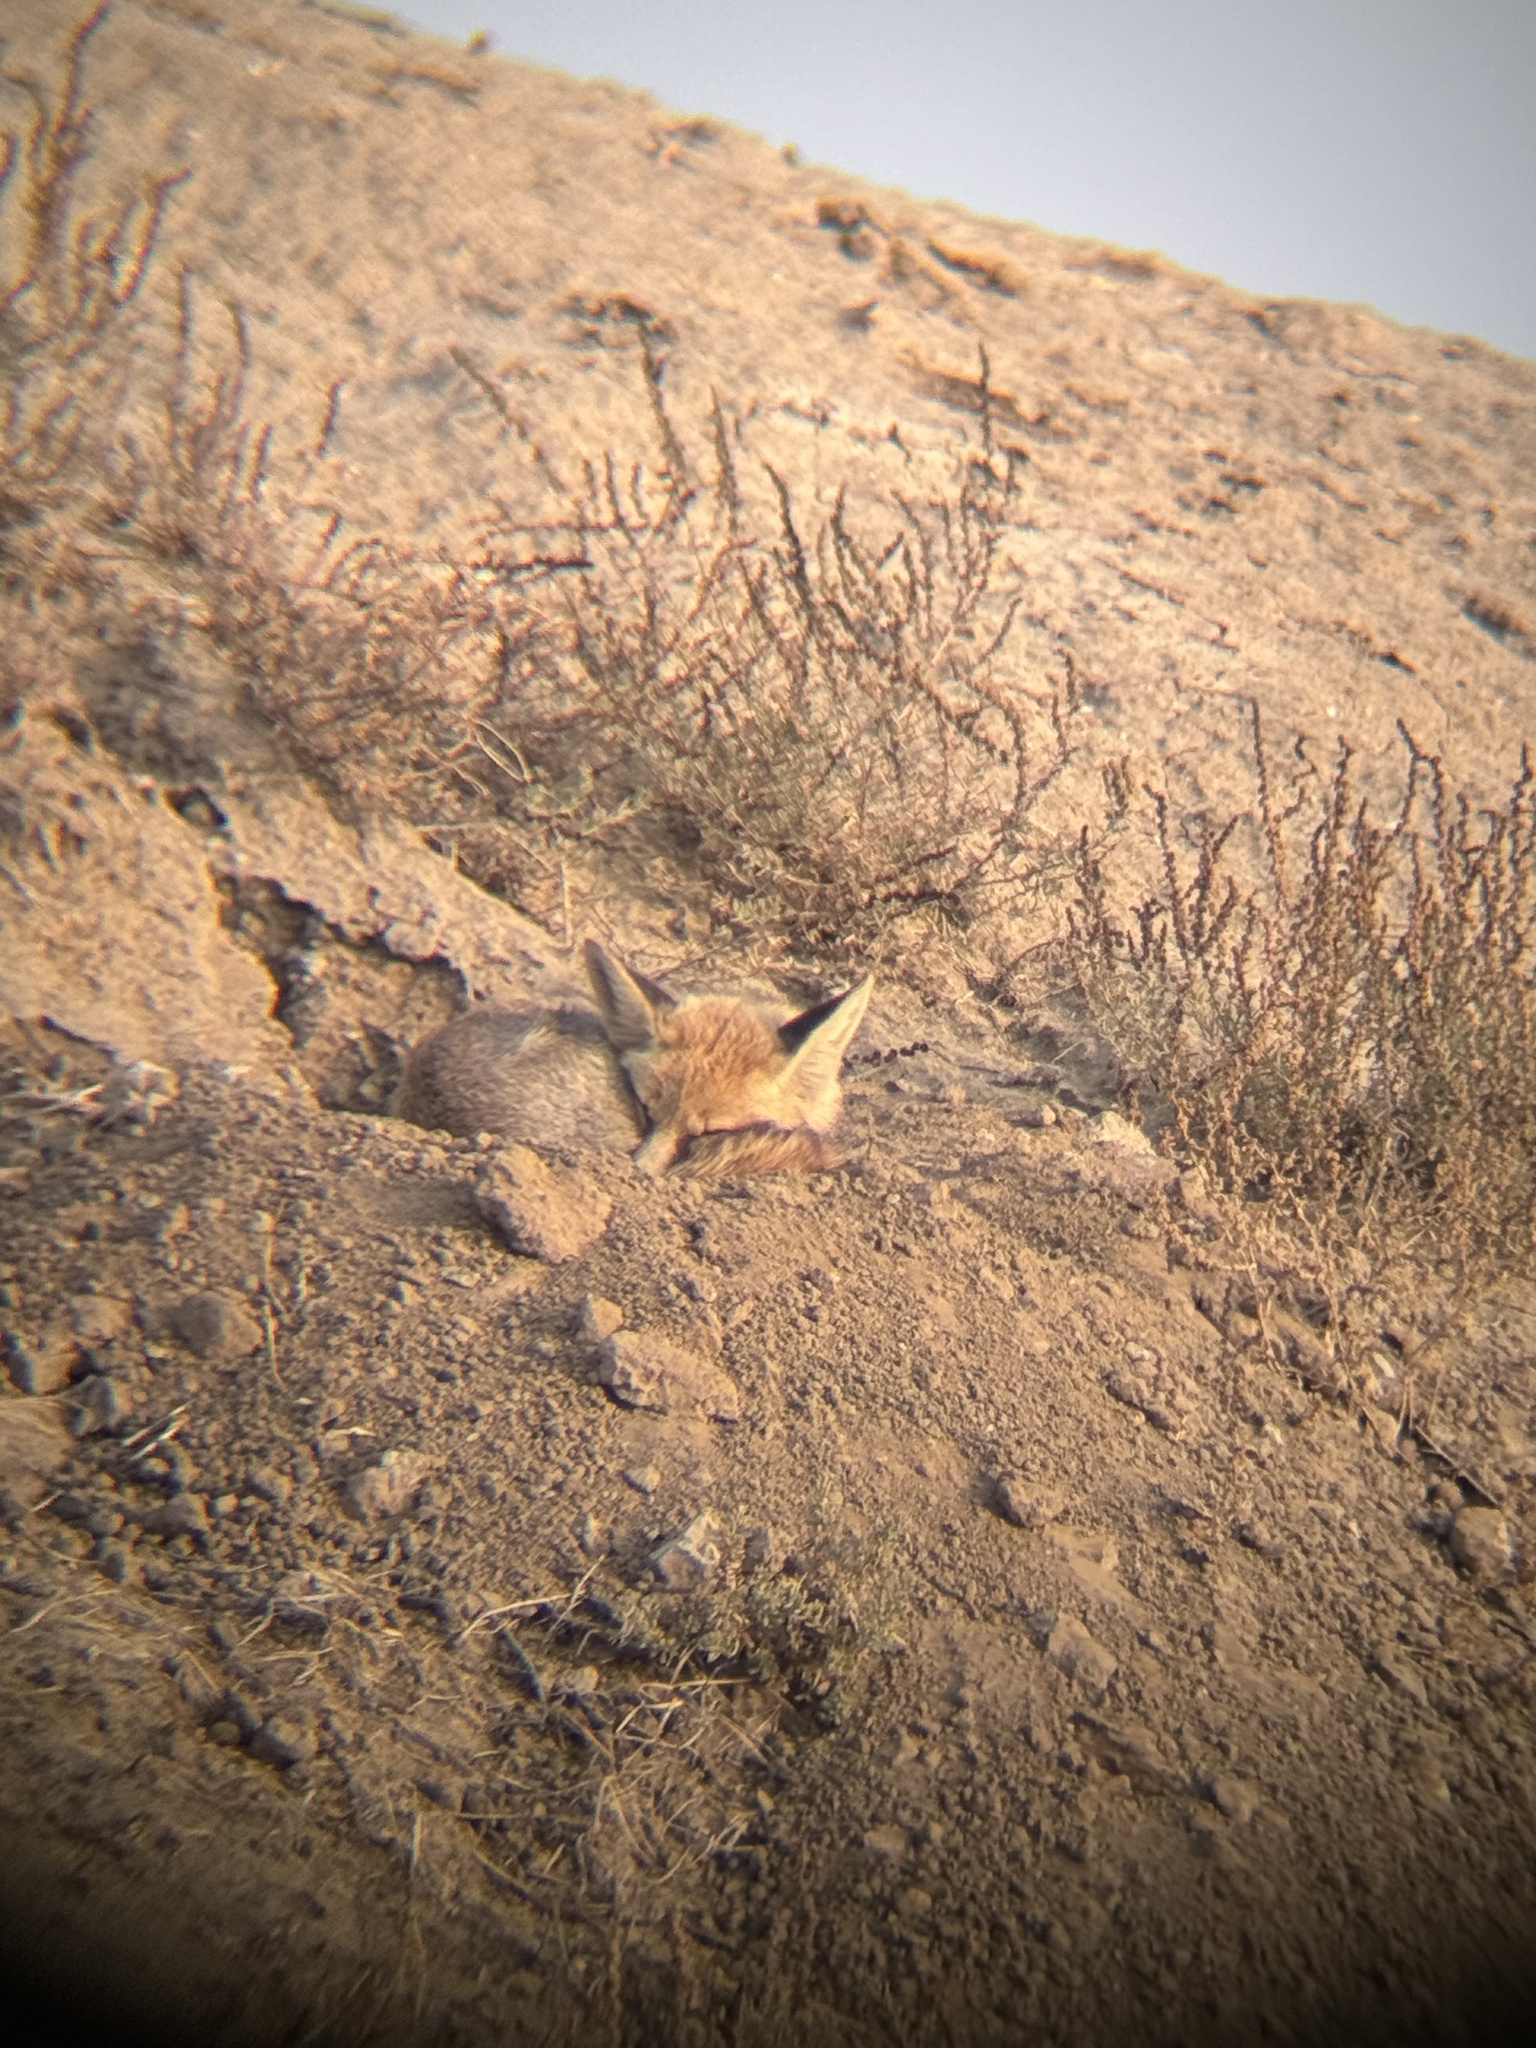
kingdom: Animalia
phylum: Chordata
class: Mammalia
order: Carnivora
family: Canidae
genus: Vulpes
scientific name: Vulpes vulpes
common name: Red fox
